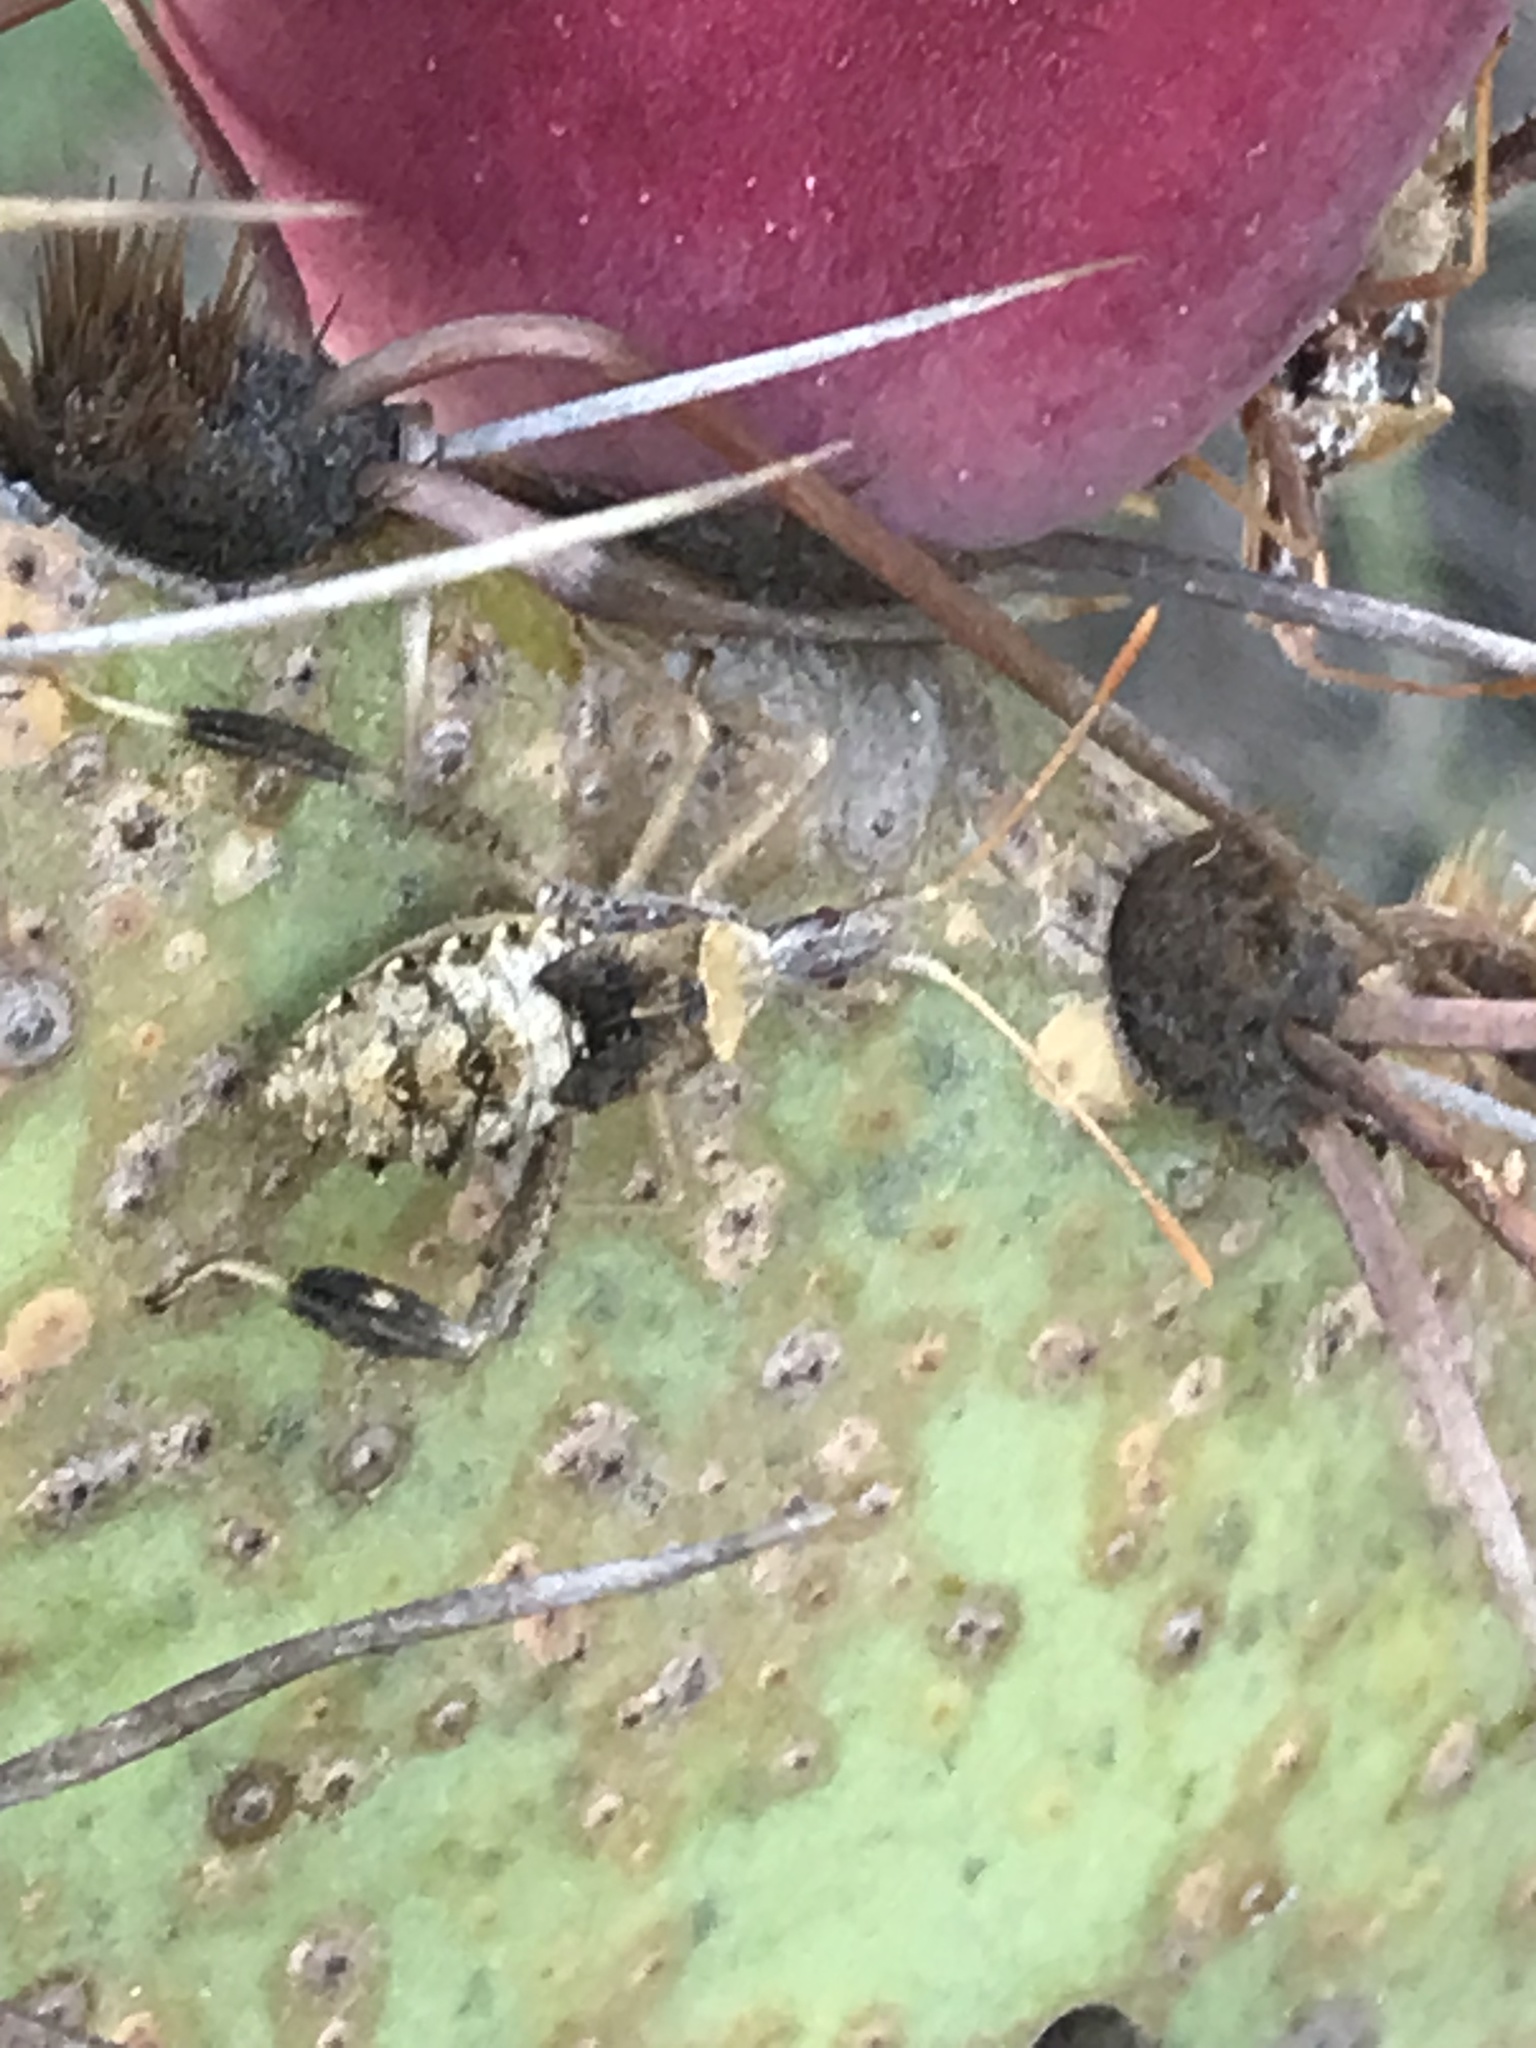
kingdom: Animalia
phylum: Arthropoda
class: Insecta
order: Hemiptera
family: Coreidae
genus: Narnia
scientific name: Narnia femorata
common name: Leaf-footed cactus bug
